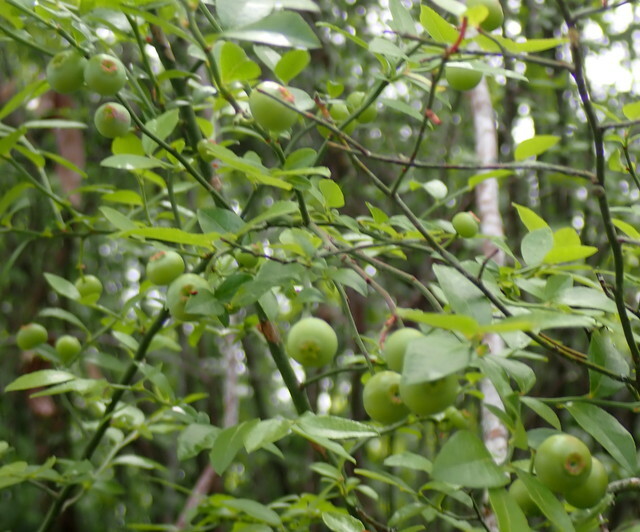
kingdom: Plantae
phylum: Tracheophyta
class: Magnoliopsida
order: Ericales
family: Ericaceae
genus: Vaccinium
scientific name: Vaccinium corymbosum
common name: Blueberry
